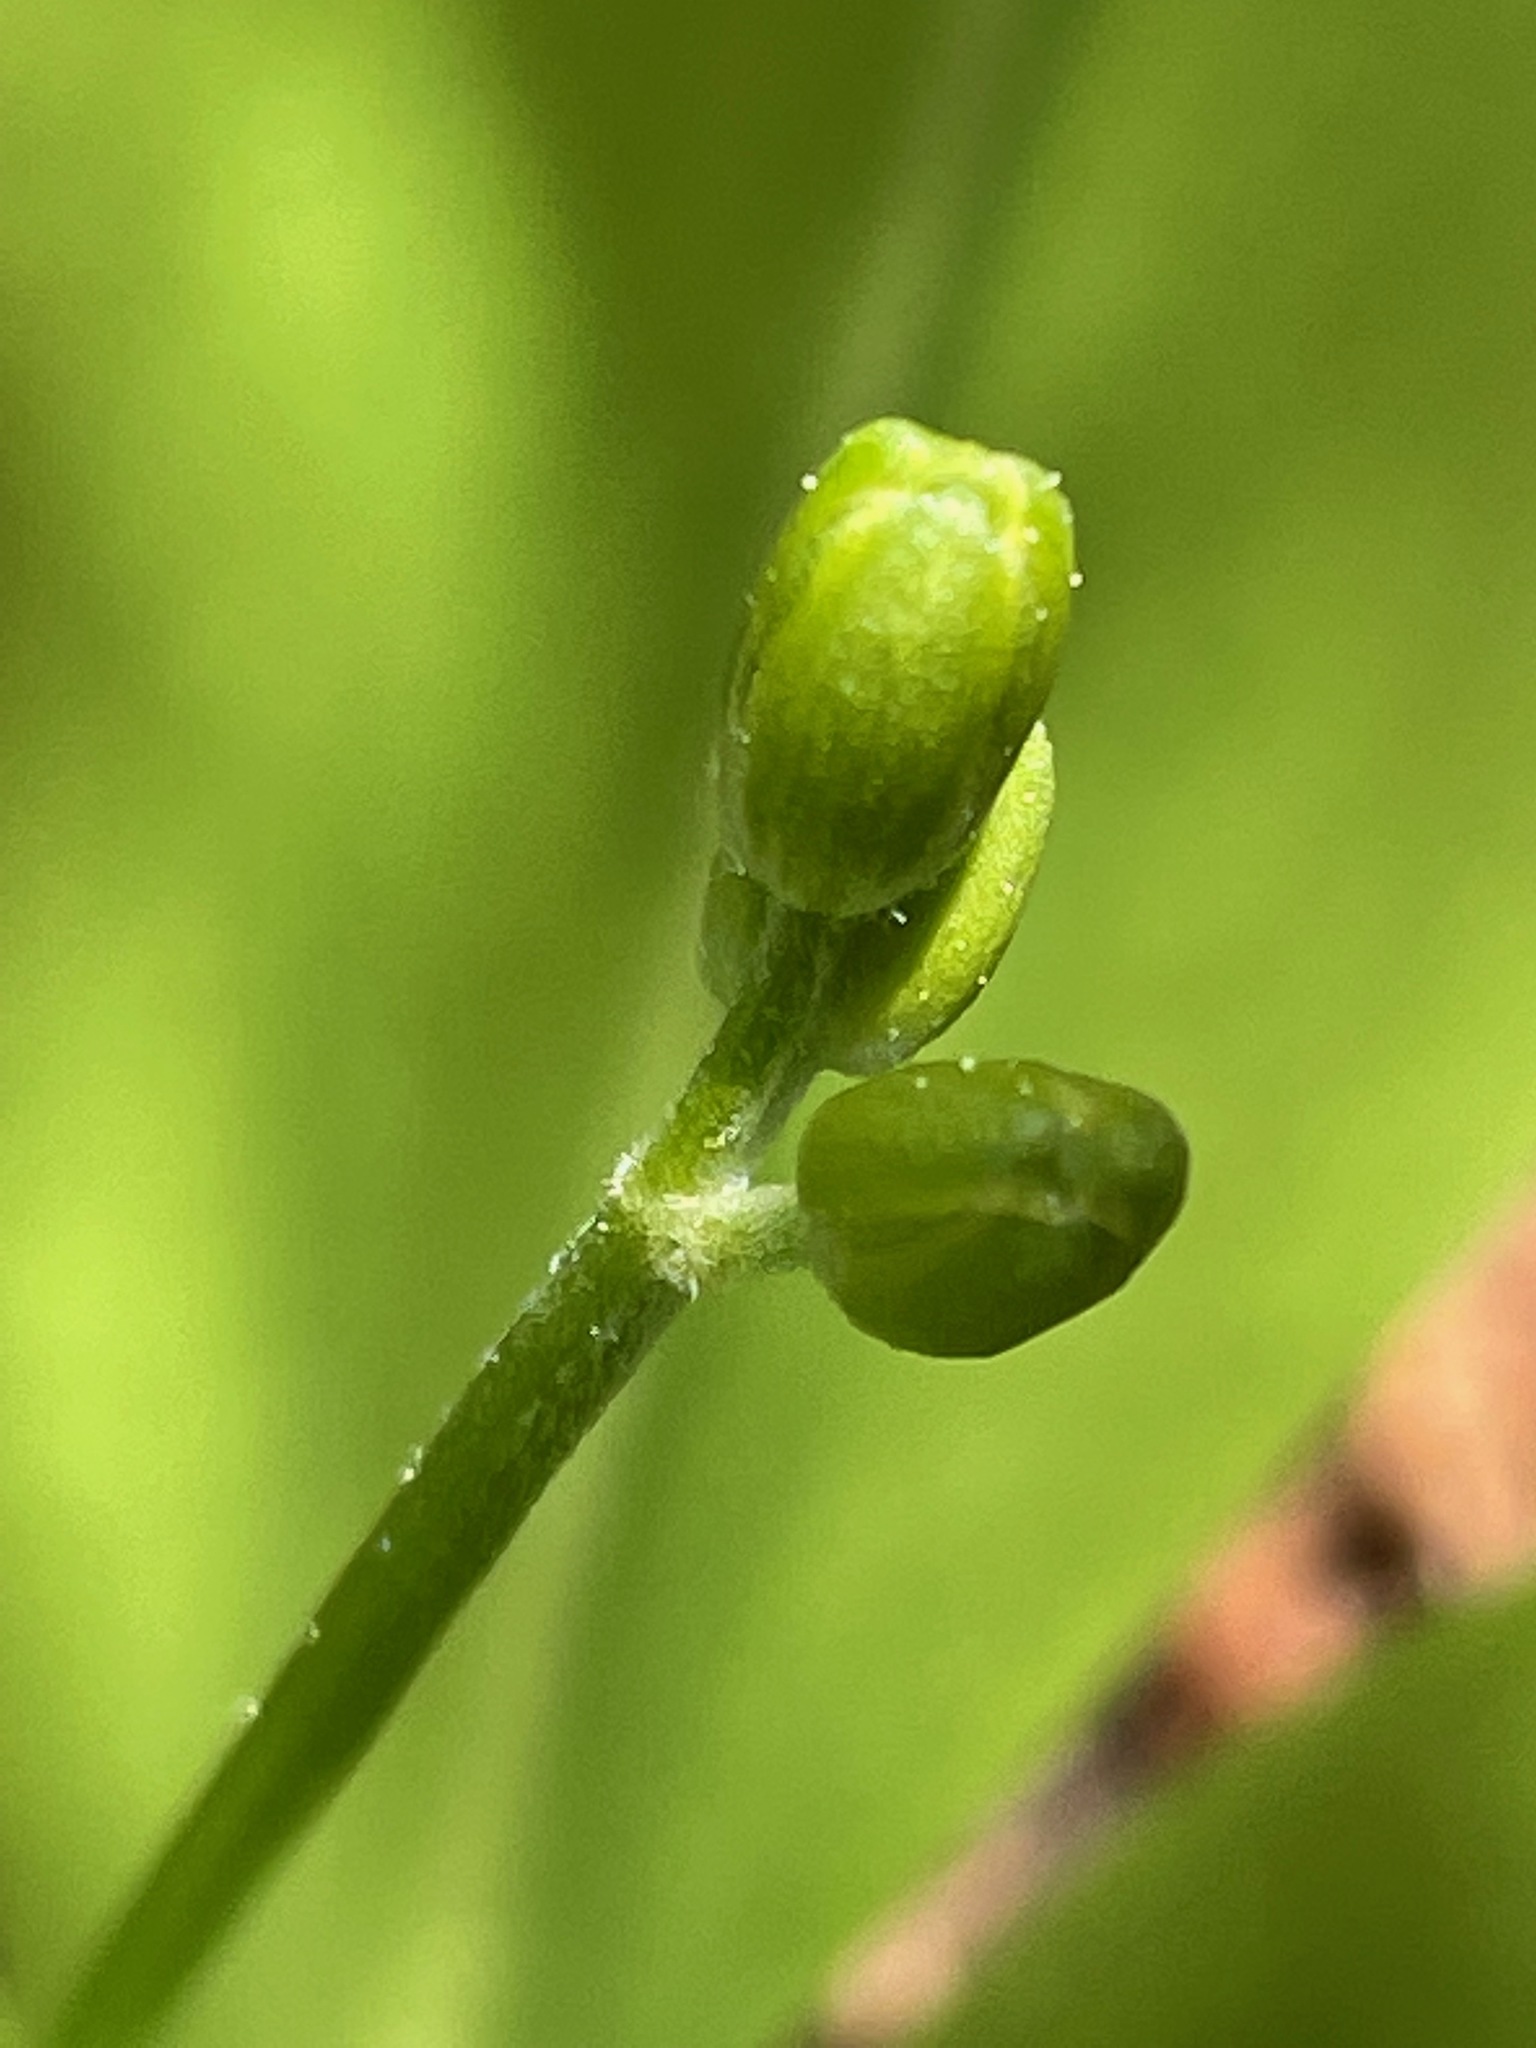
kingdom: Plantae
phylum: Tracheophyta
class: Liliopsida
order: Liliales
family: Liliaceae
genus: Clintonia
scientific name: Clintonia borealis
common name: Yellow clintonia
